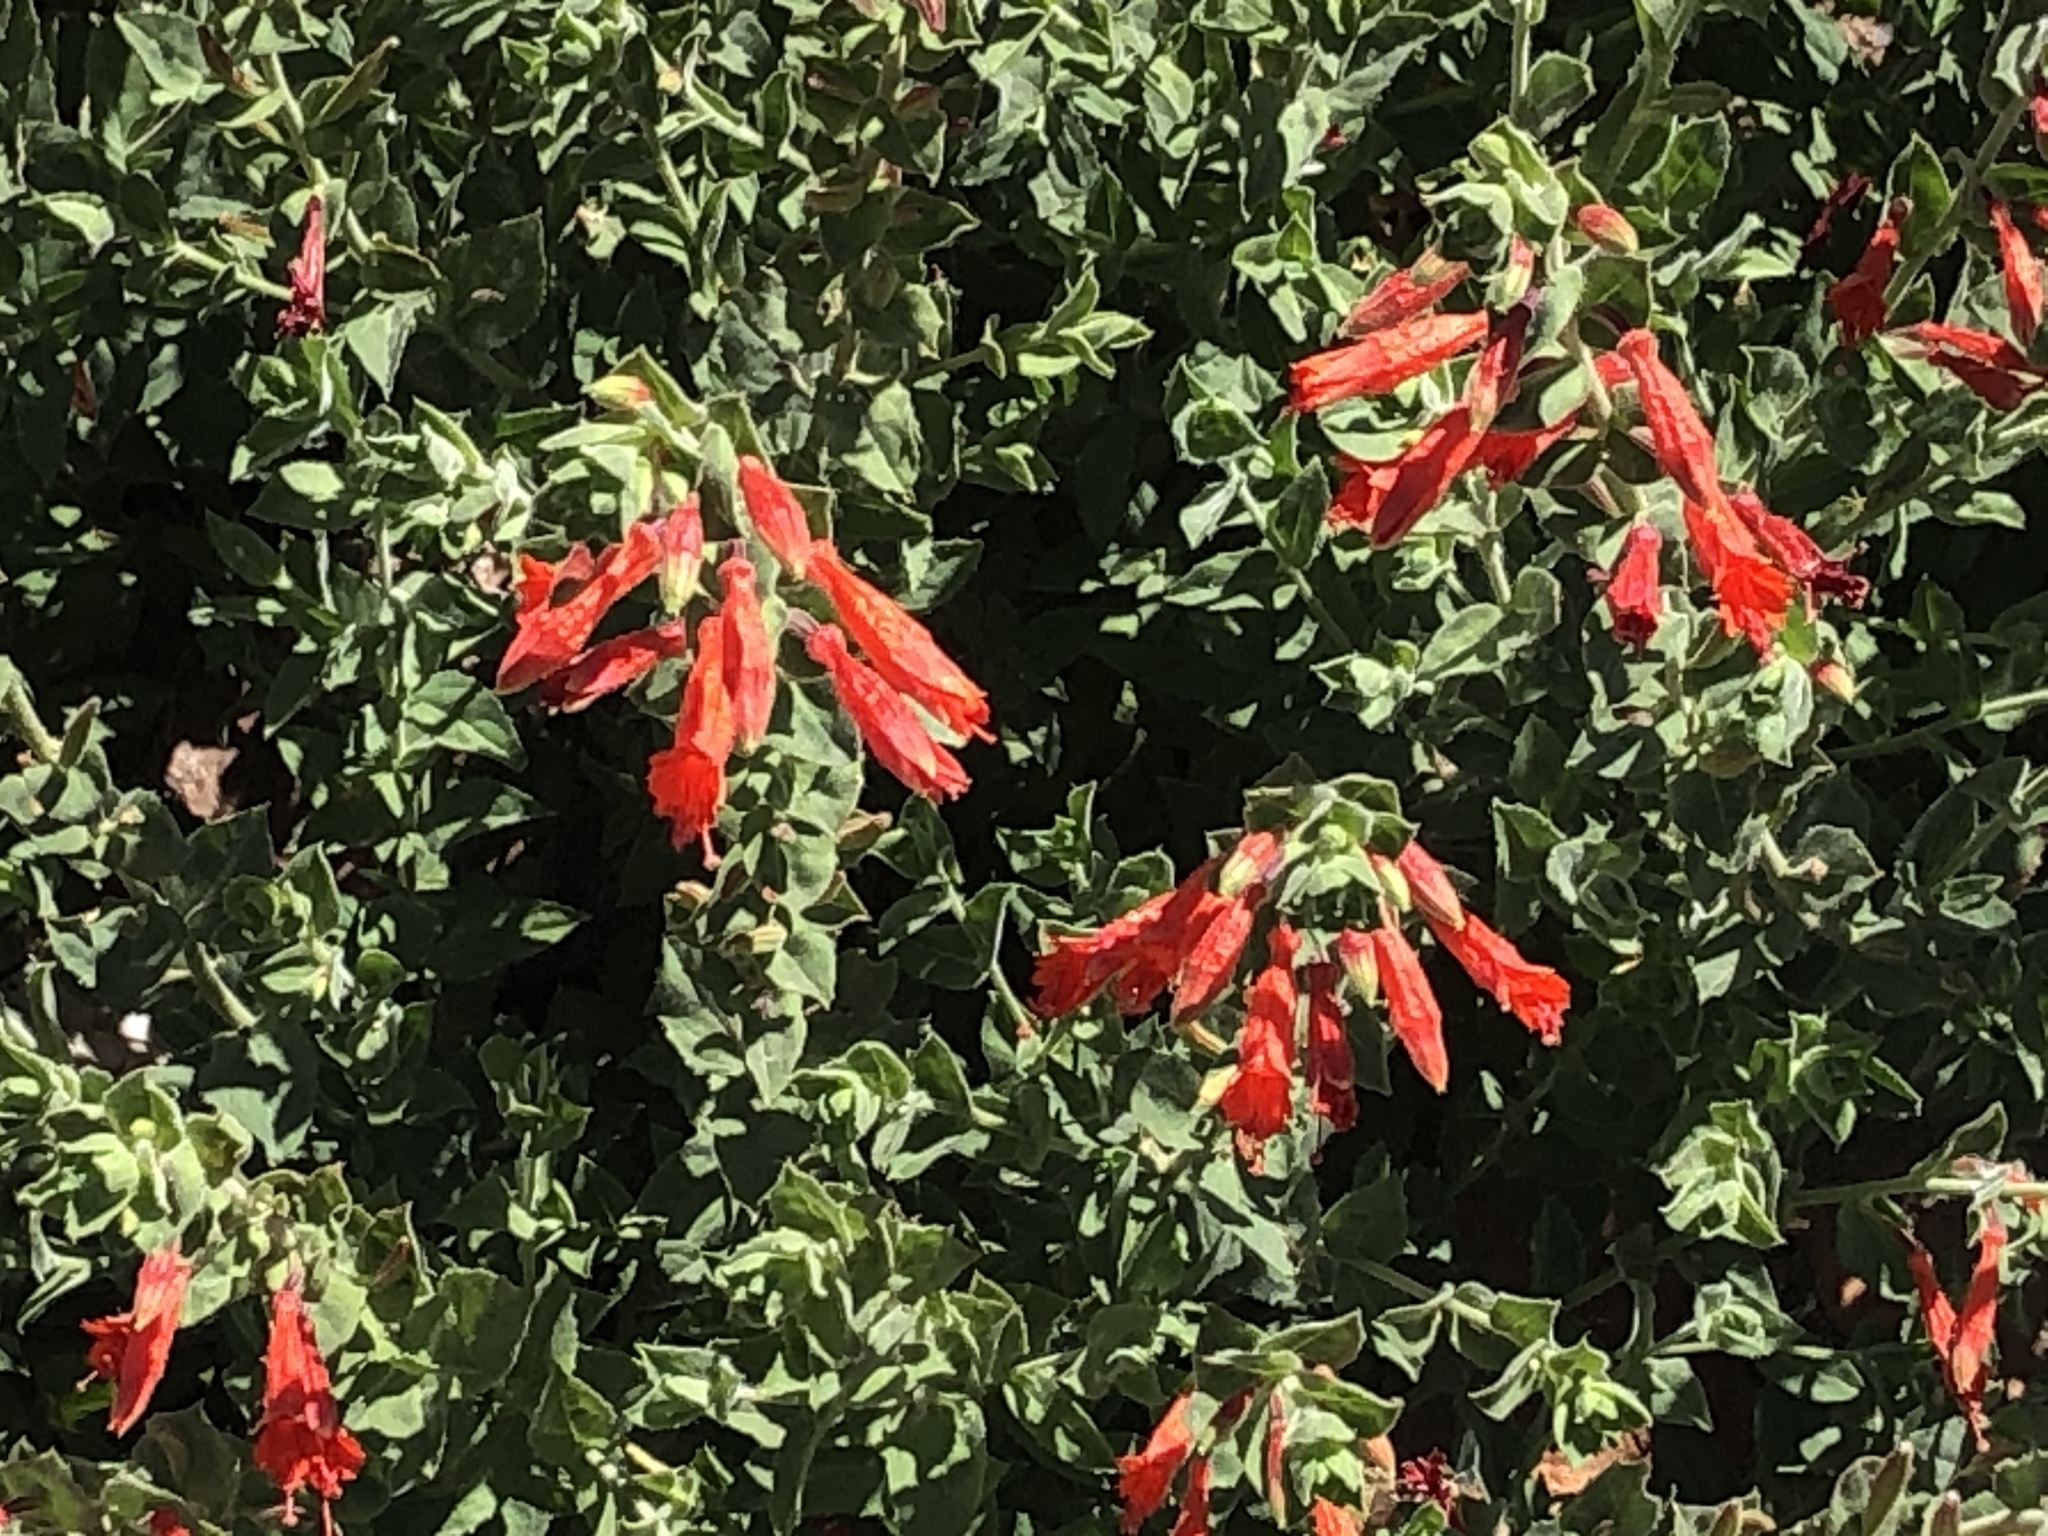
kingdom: Plantae
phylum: Tracheophyta
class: Magnoliopsida
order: Myrtales
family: Onagraceae
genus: Epilobium
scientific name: Epilobium canum
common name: California-fuchsia
